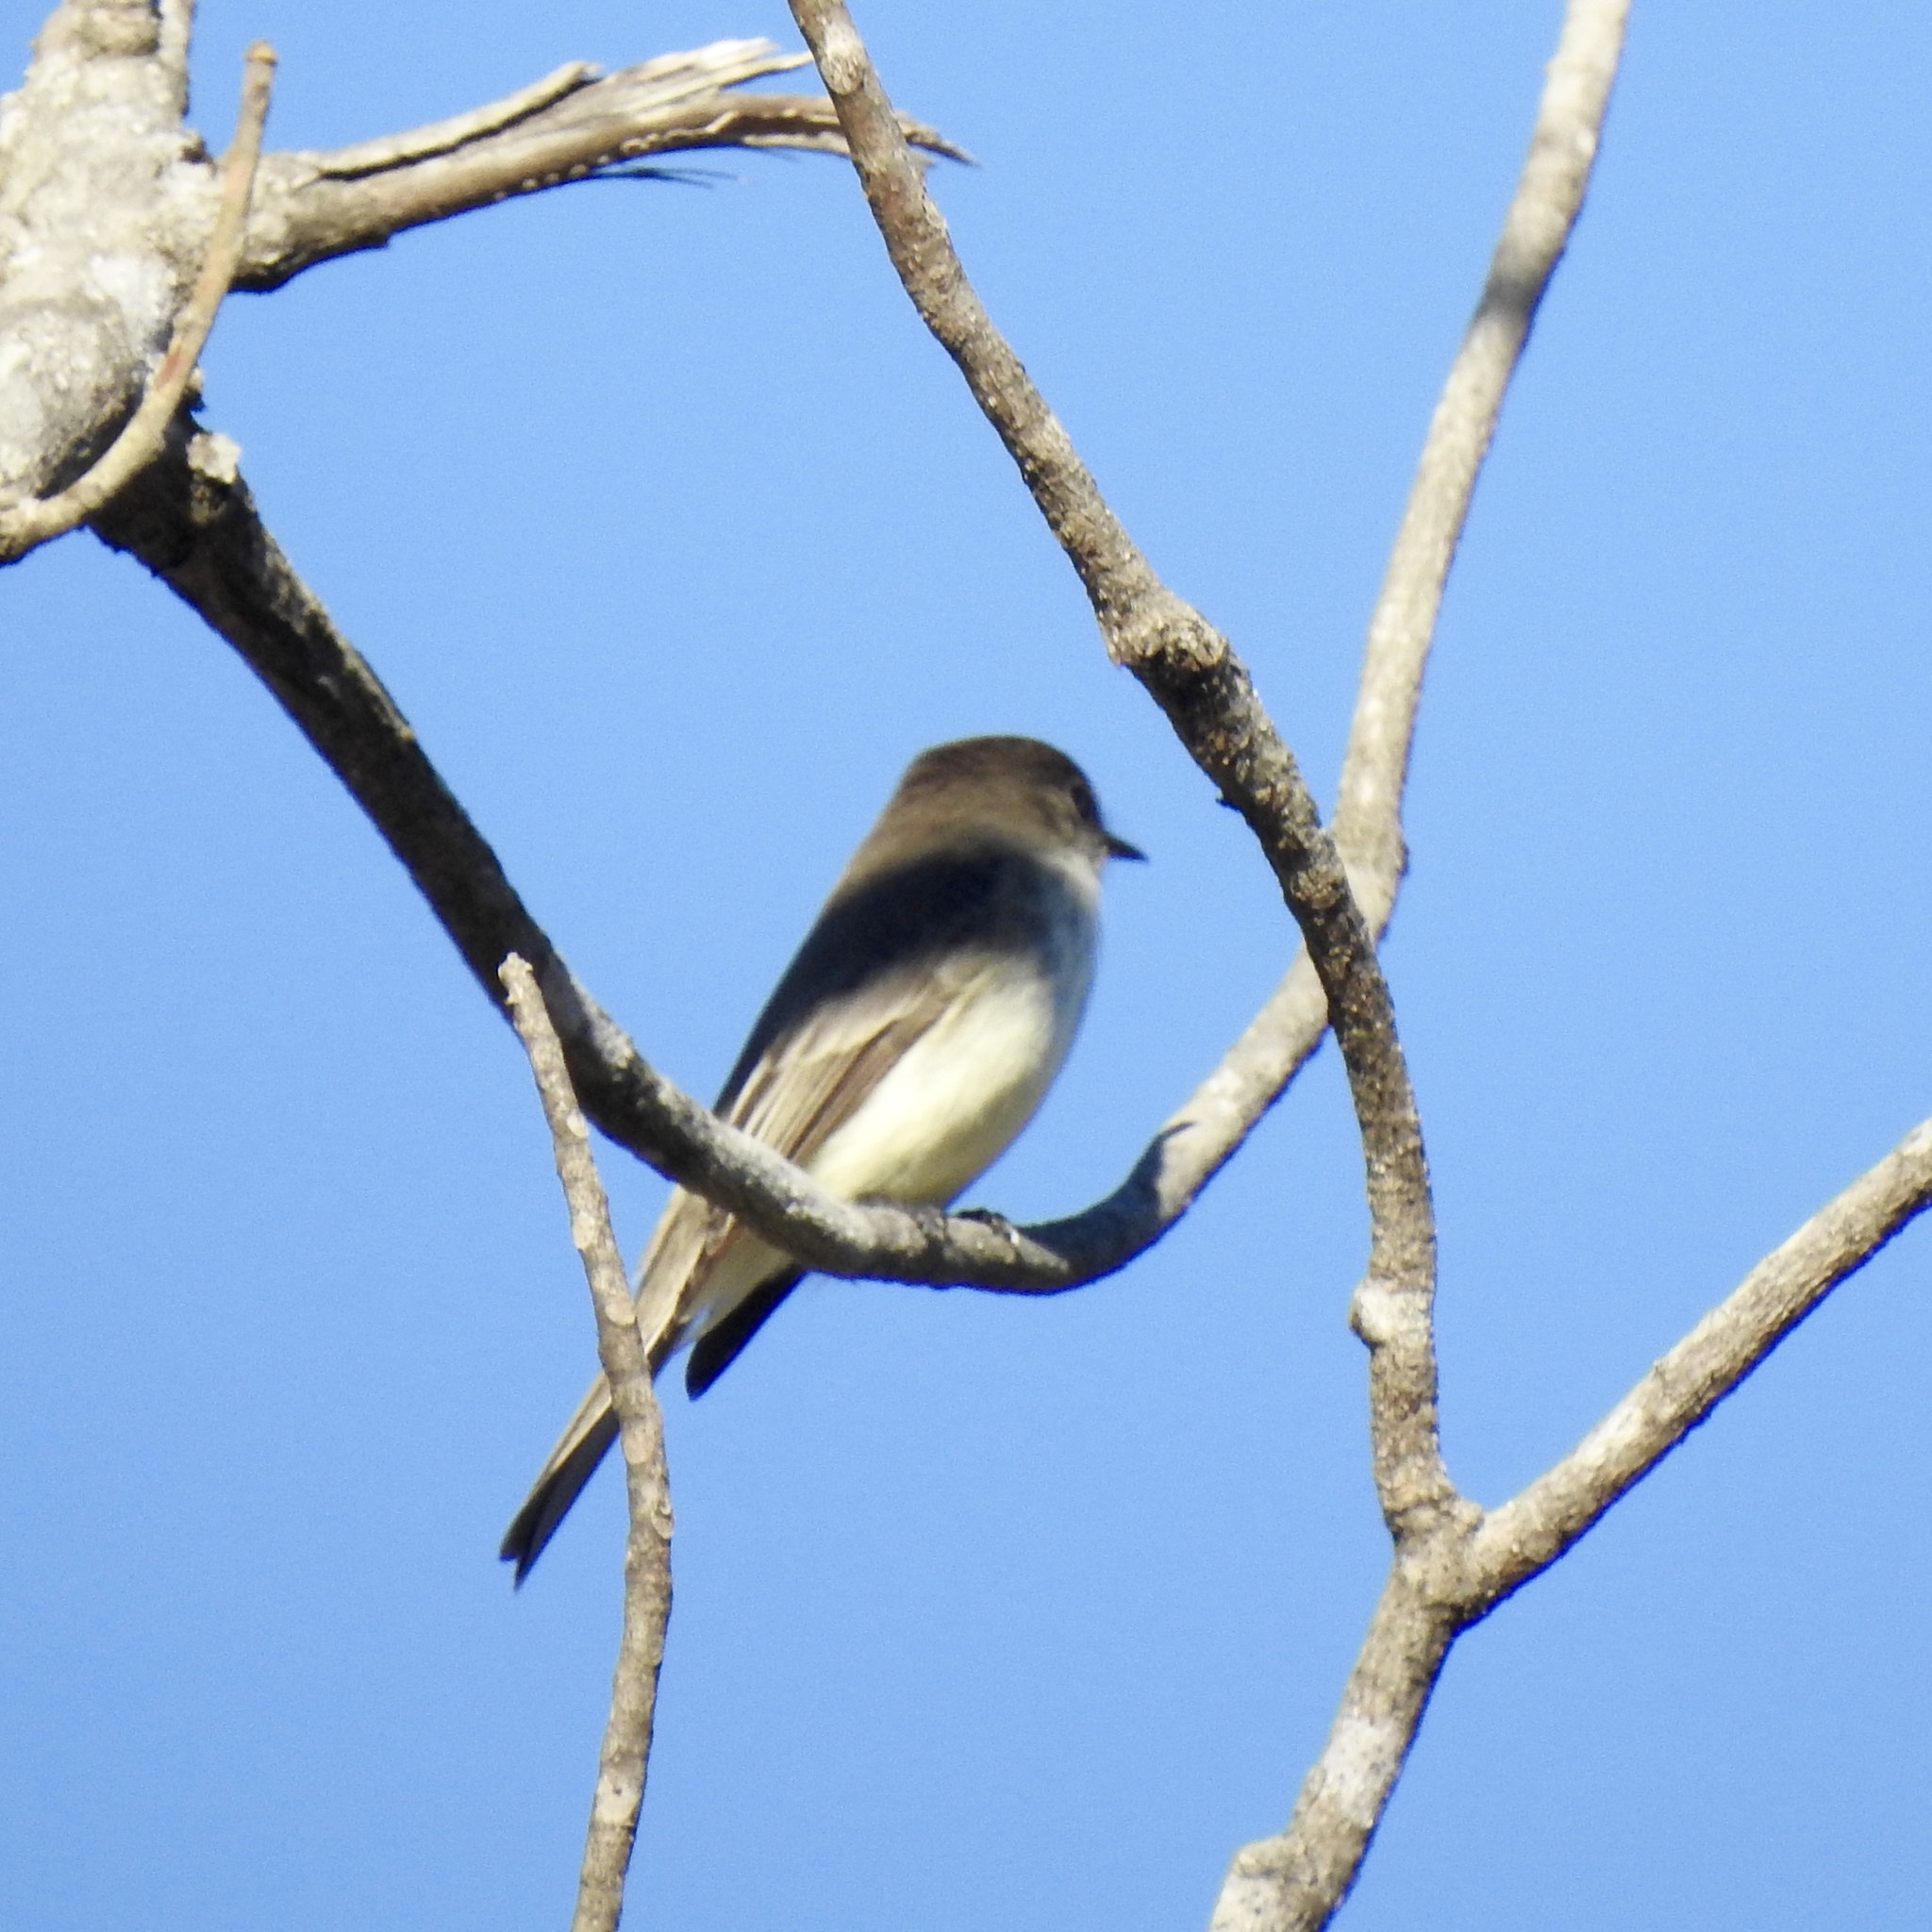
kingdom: Animalia
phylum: Chordata
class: Aves
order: Passeriformes
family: Tyrannidae
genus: Sayornis
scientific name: Sayornis phoebe
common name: Eastern phoebe
